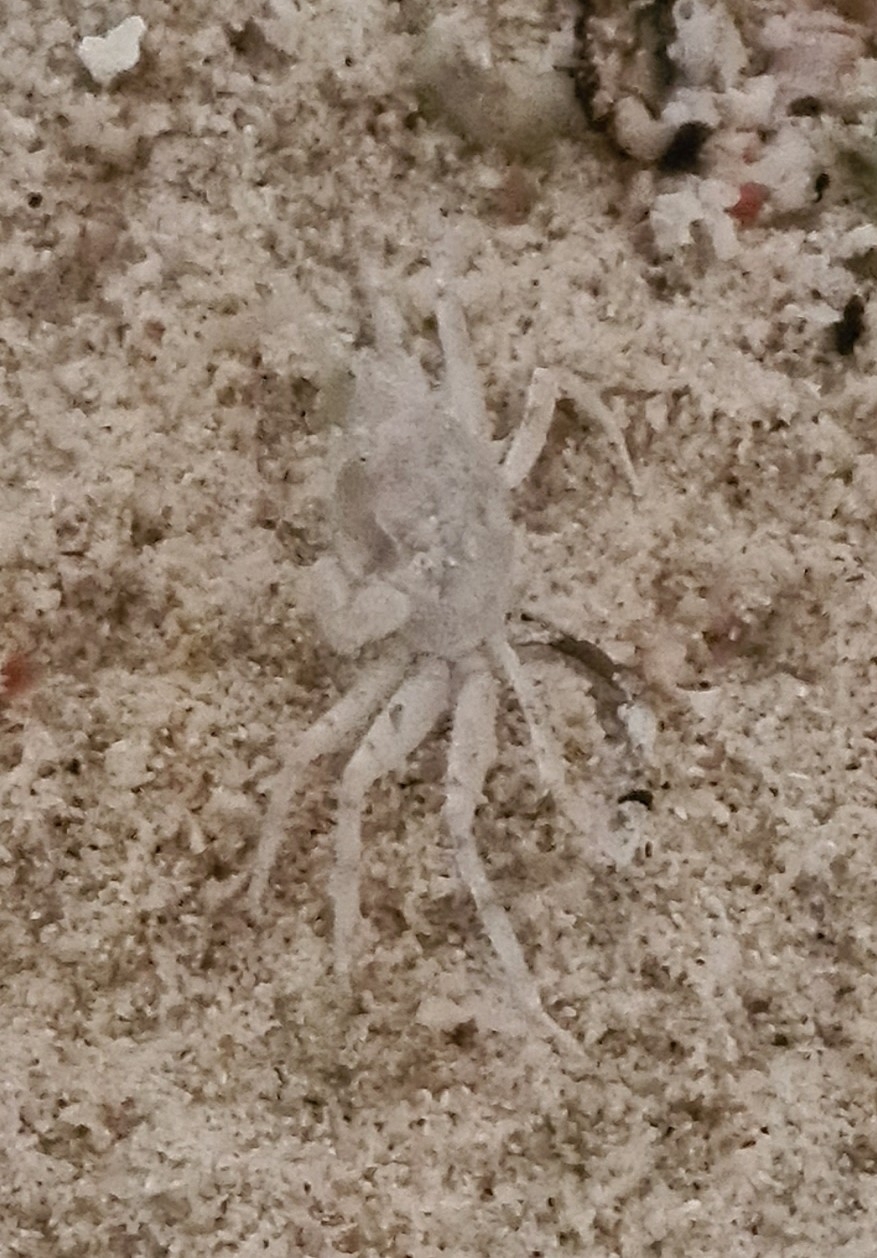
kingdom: Animalia
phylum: Arthropoda
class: Malacostraca
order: Decapoda
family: Ocypodidae
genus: Ocypode
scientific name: Ocypode pallidula
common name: Pallid ghost crab
